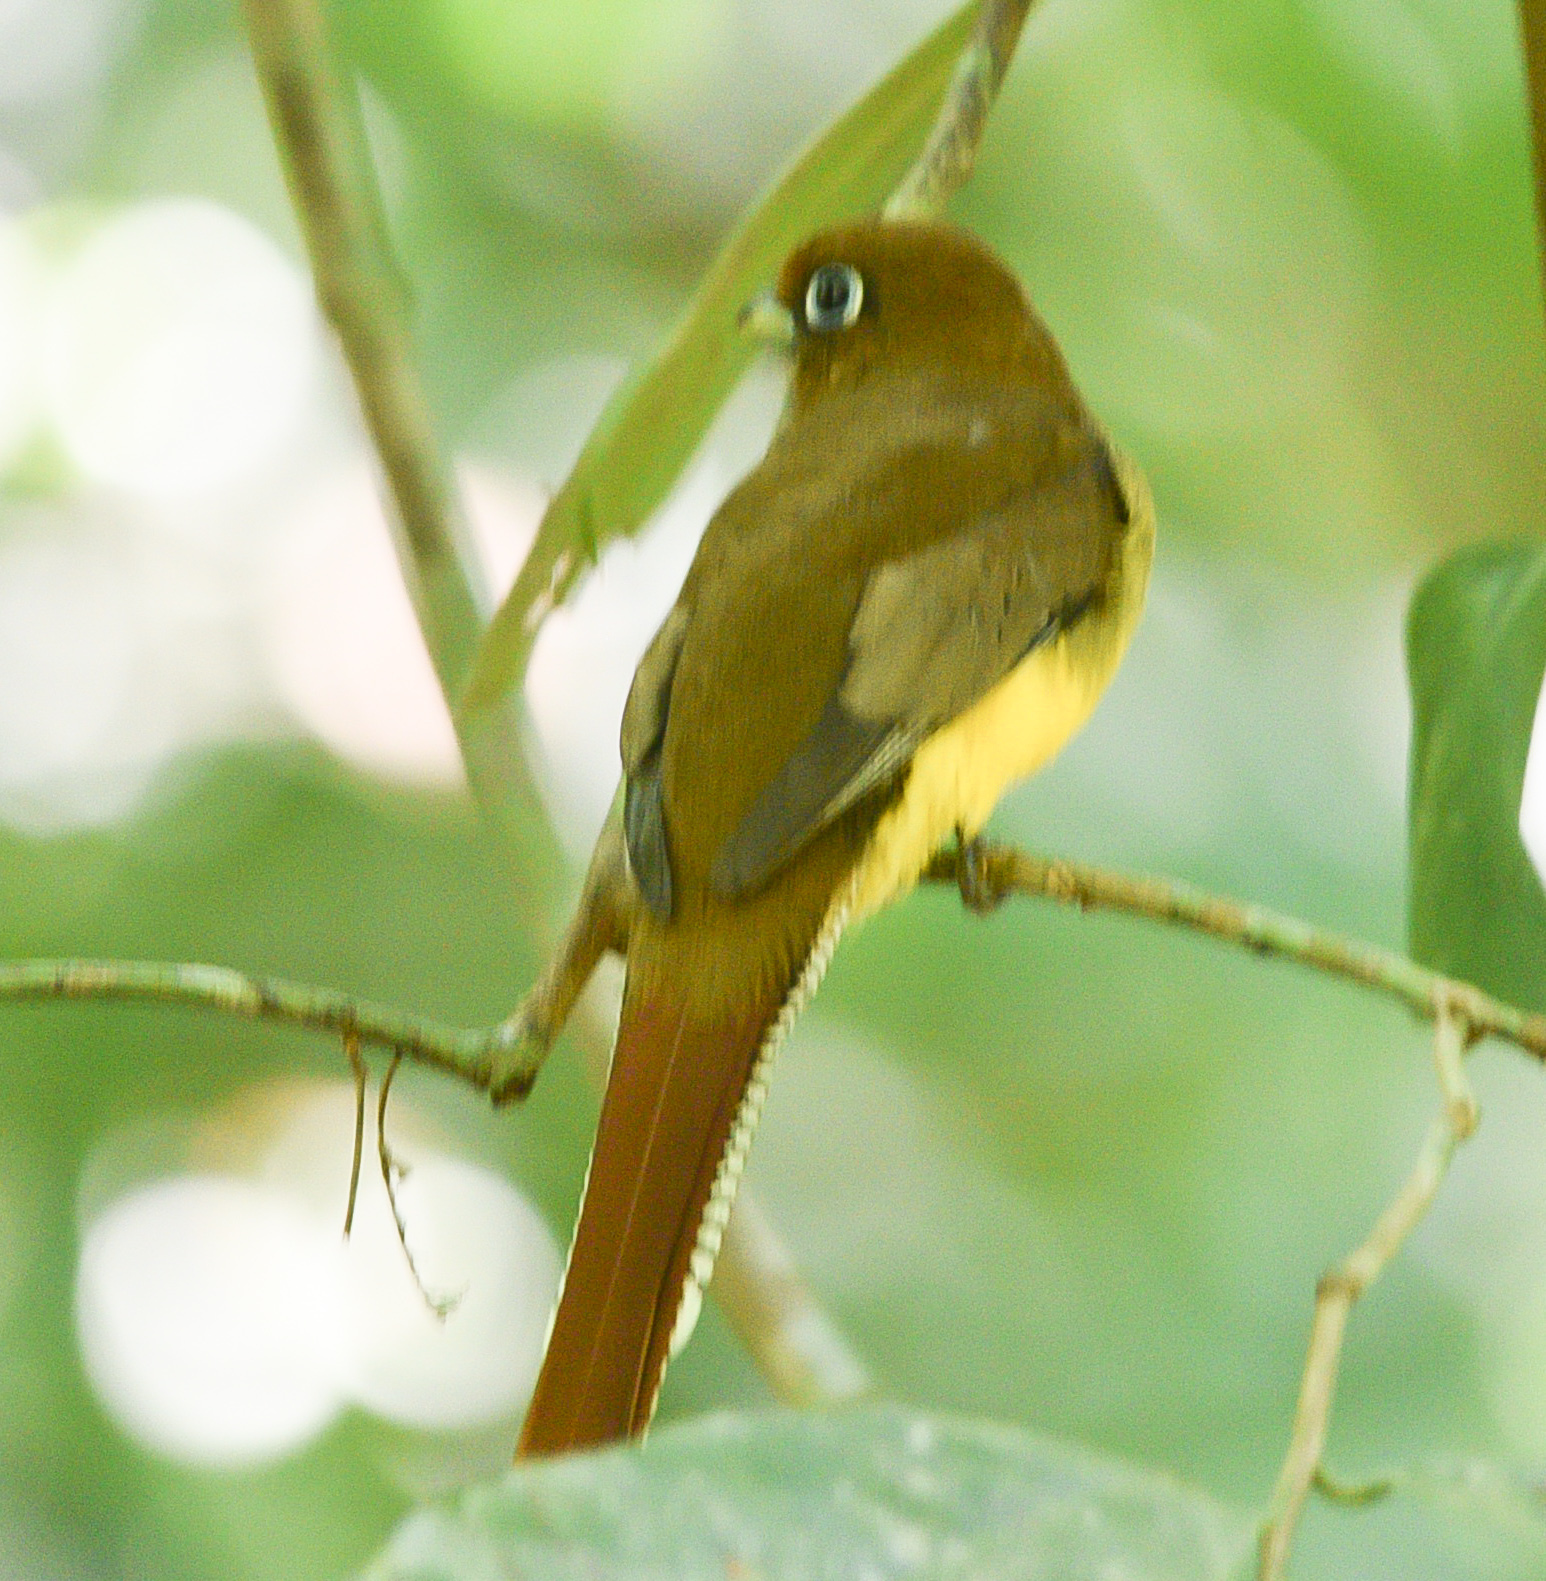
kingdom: Animalia
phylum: Chordata
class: Aves
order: Trogoniformes
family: Trogonidae
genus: Trogon
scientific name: Trogon rufus
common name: Black-throated trogon
